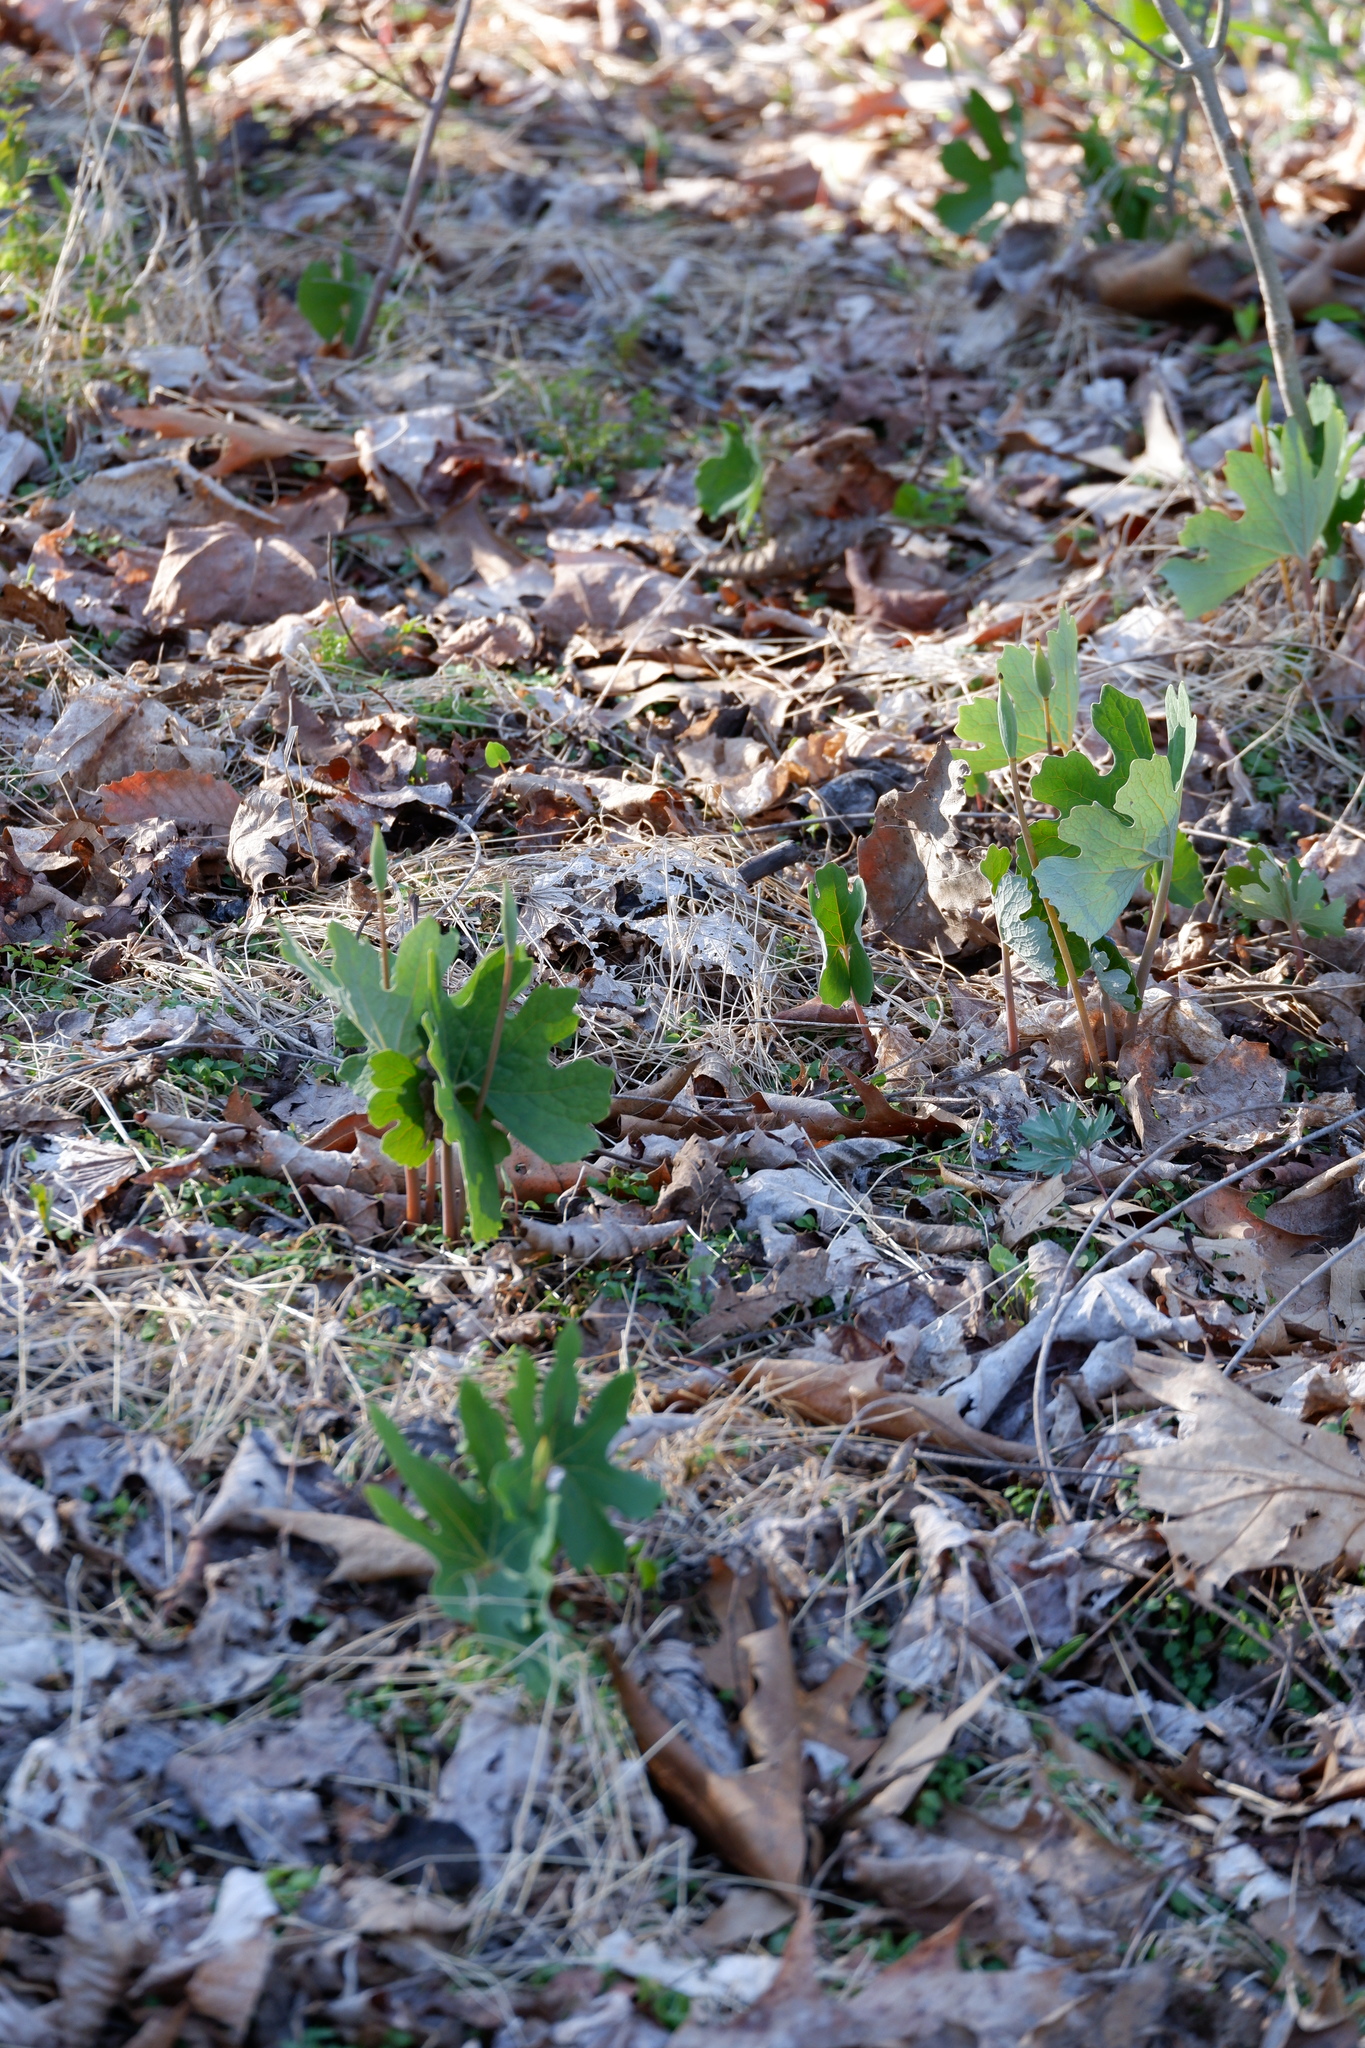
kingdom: Plantae
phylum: Tracheophyta
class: Magnoliopsida
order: Ranunculales
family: Papaveraceae
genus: Sanguinaria
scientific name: Sanguinaria canadensis
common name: Bloodroot
